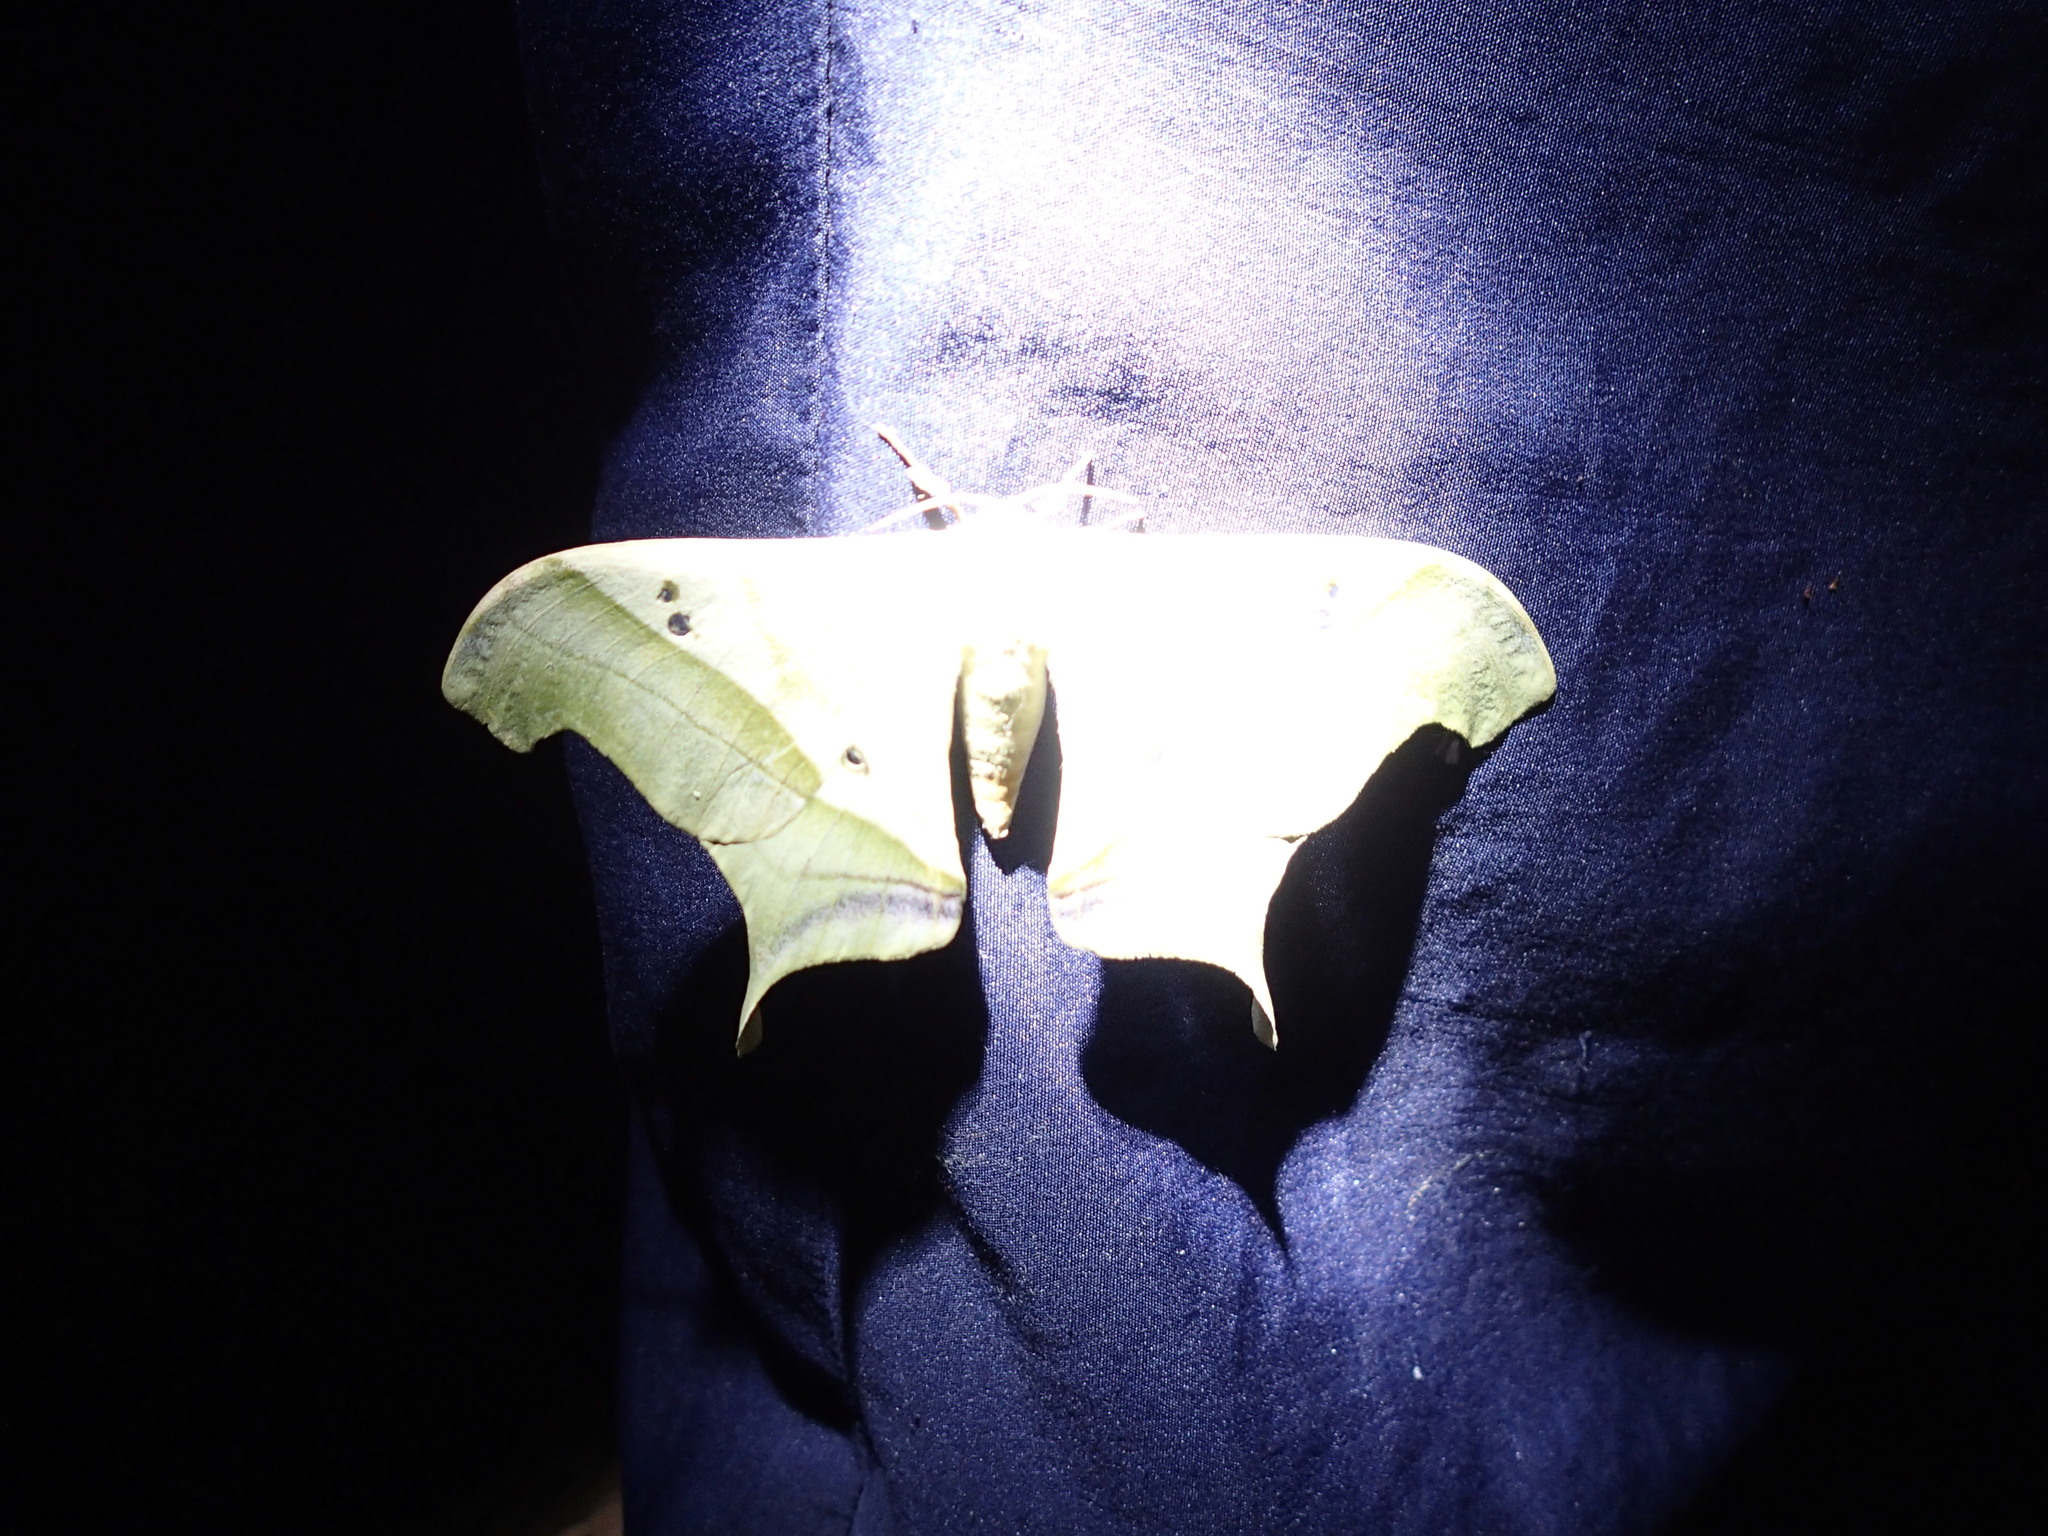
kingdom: Animalia
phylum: Arthropoda
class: Insecta
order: Lepidoptera
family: Saturniidae
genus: Dysdaemonia
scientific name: Dysdaemonia fosteri
